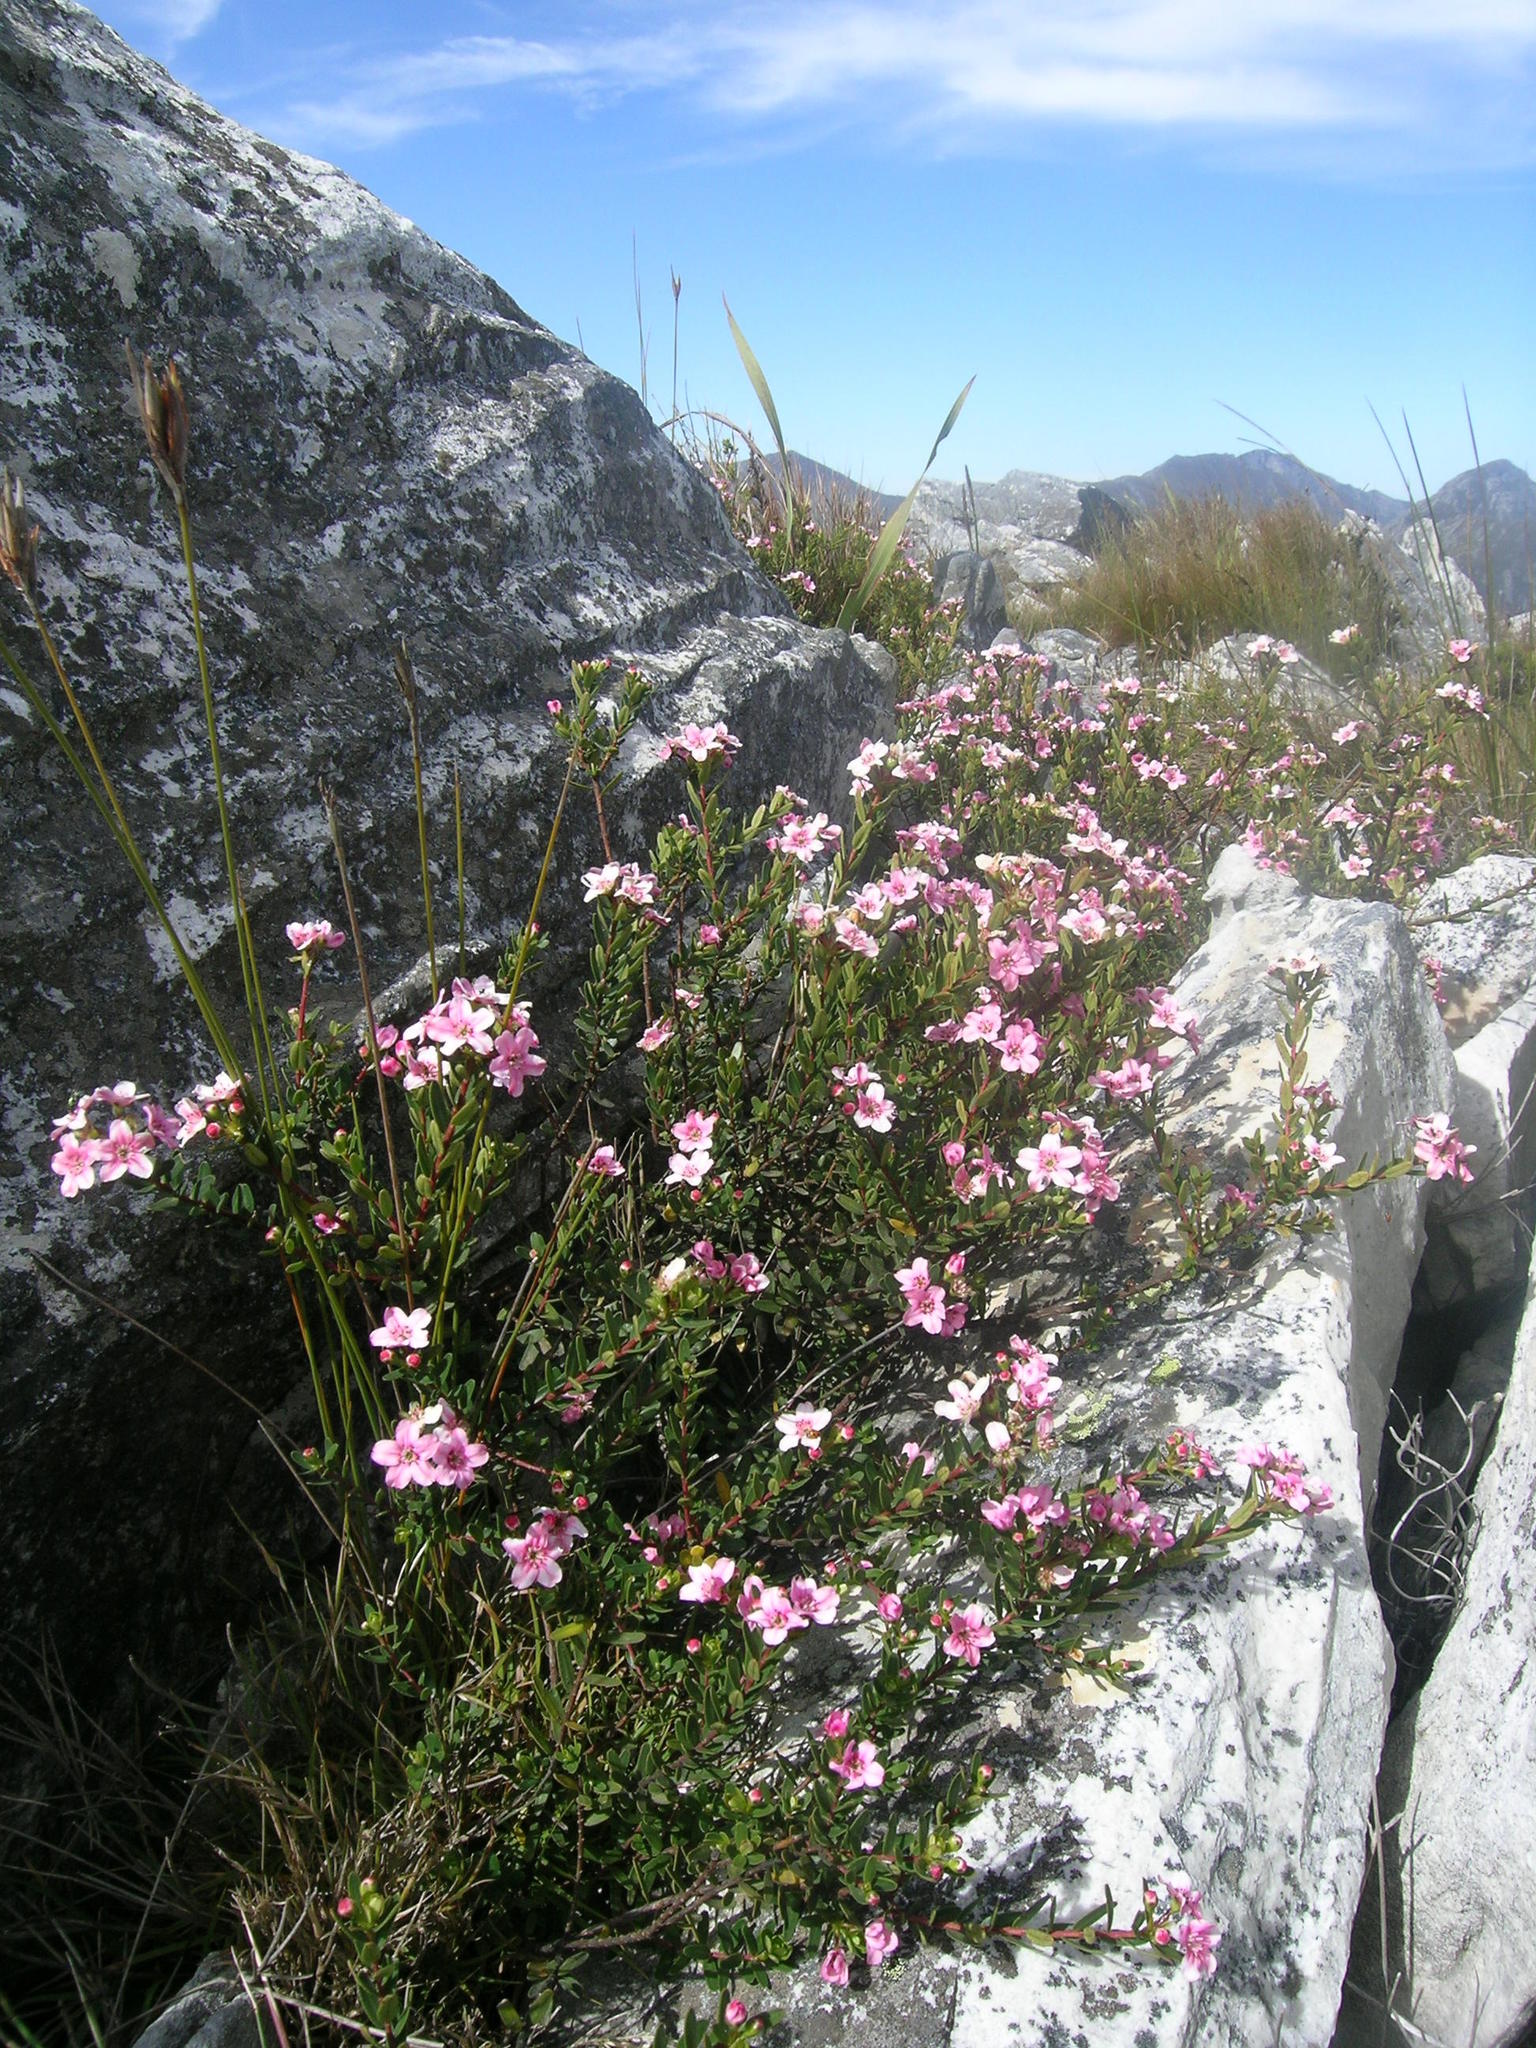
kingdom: Plantae
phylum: Tracheophyta
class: Magnoliopsida
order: Sapindales
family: Rutaceae
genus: Adenandra
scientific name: Adenandra fragrans
